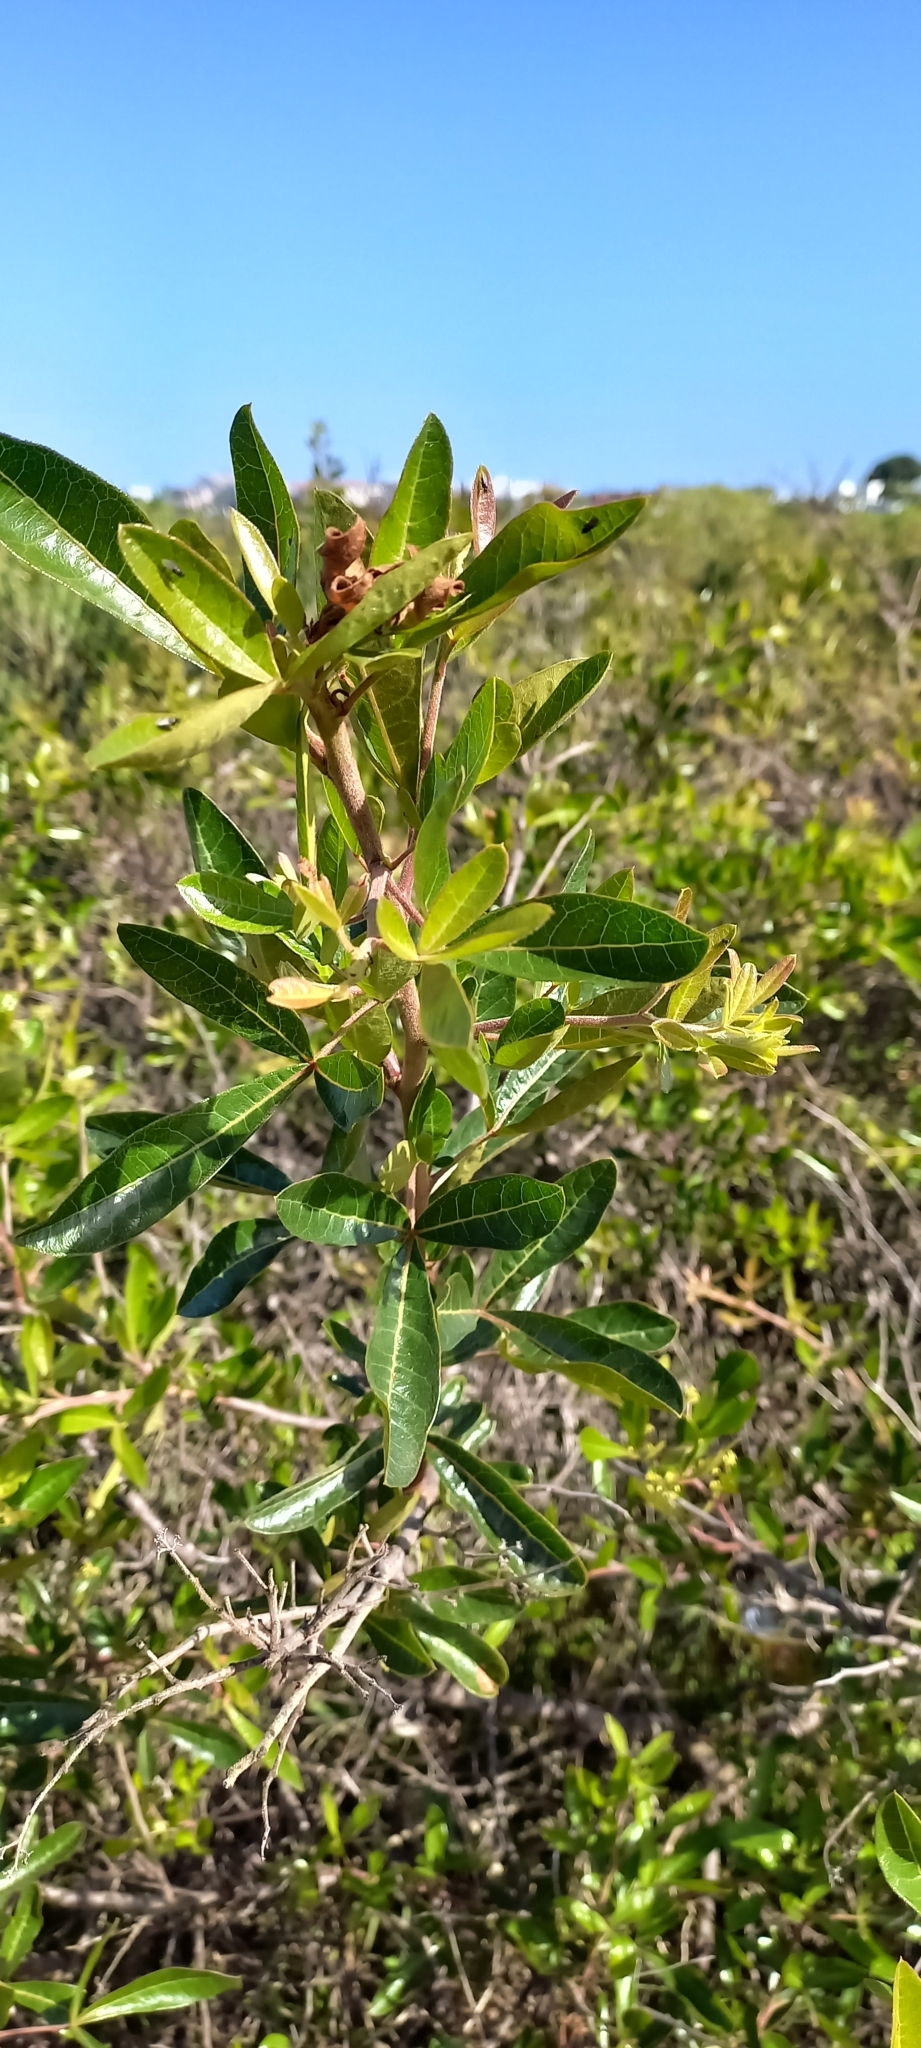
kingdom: Plantae
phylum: Tracheophyta
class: Magnoliopsida
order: Sapindales
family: Anacardiaceae
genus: Searsia
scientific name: Searsia laevigata
